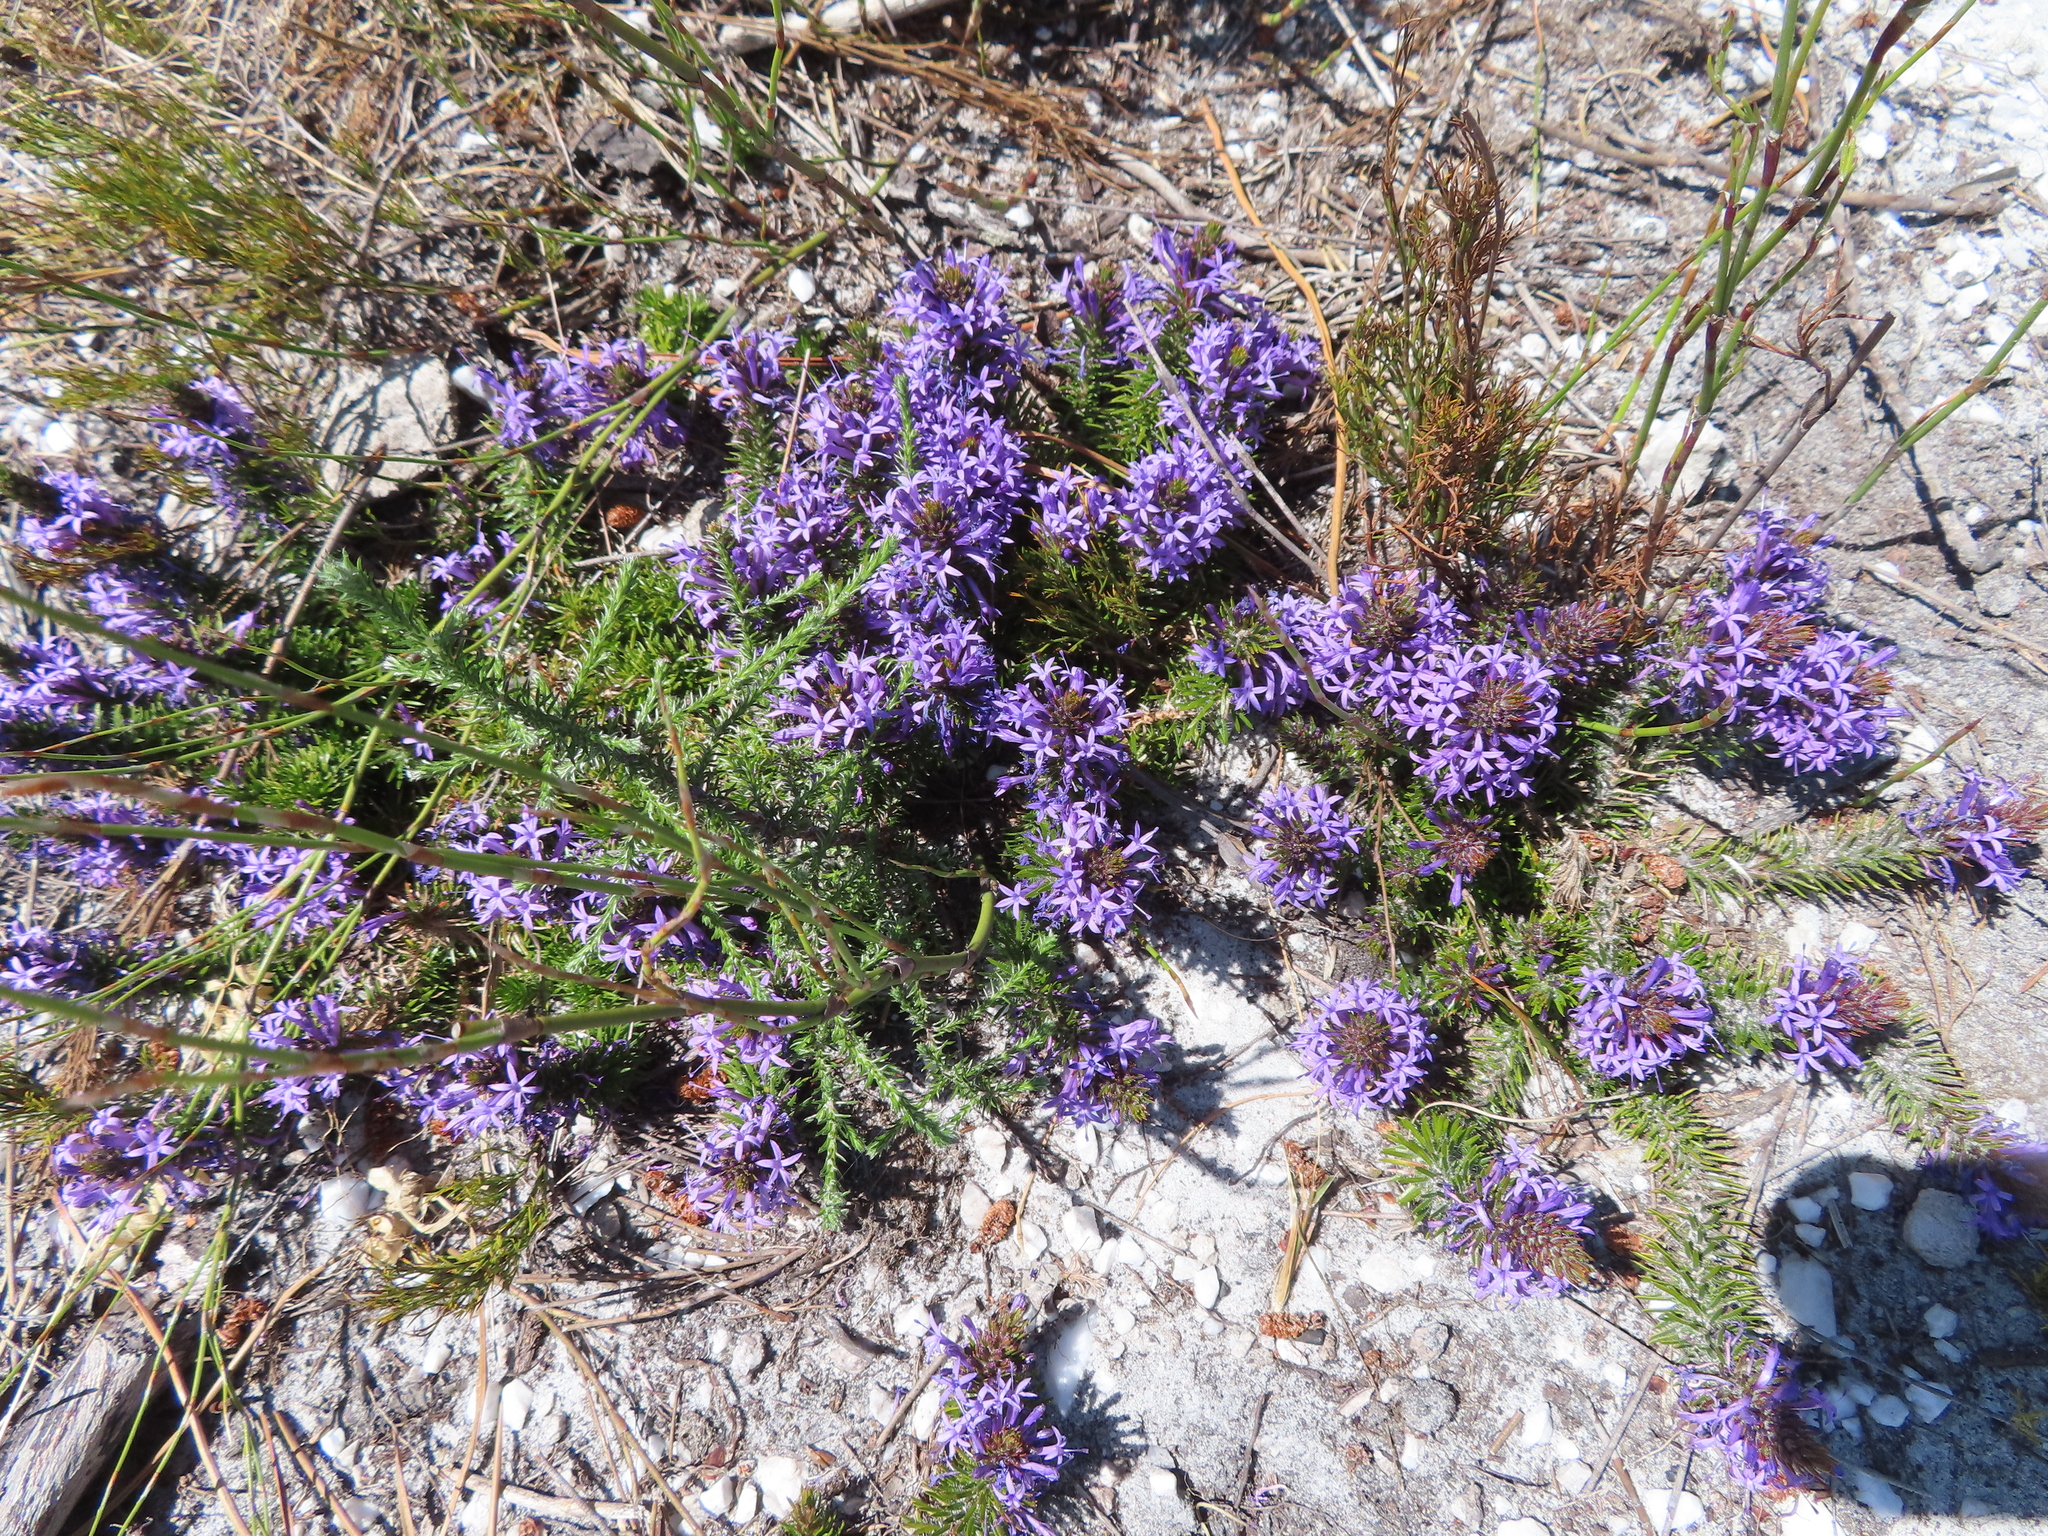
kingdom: Plantae
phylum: Tracheophyta
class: Magnoliopsida
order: Asterales
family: Campanulaceae
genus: Merciera
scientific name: Merciera azurea
